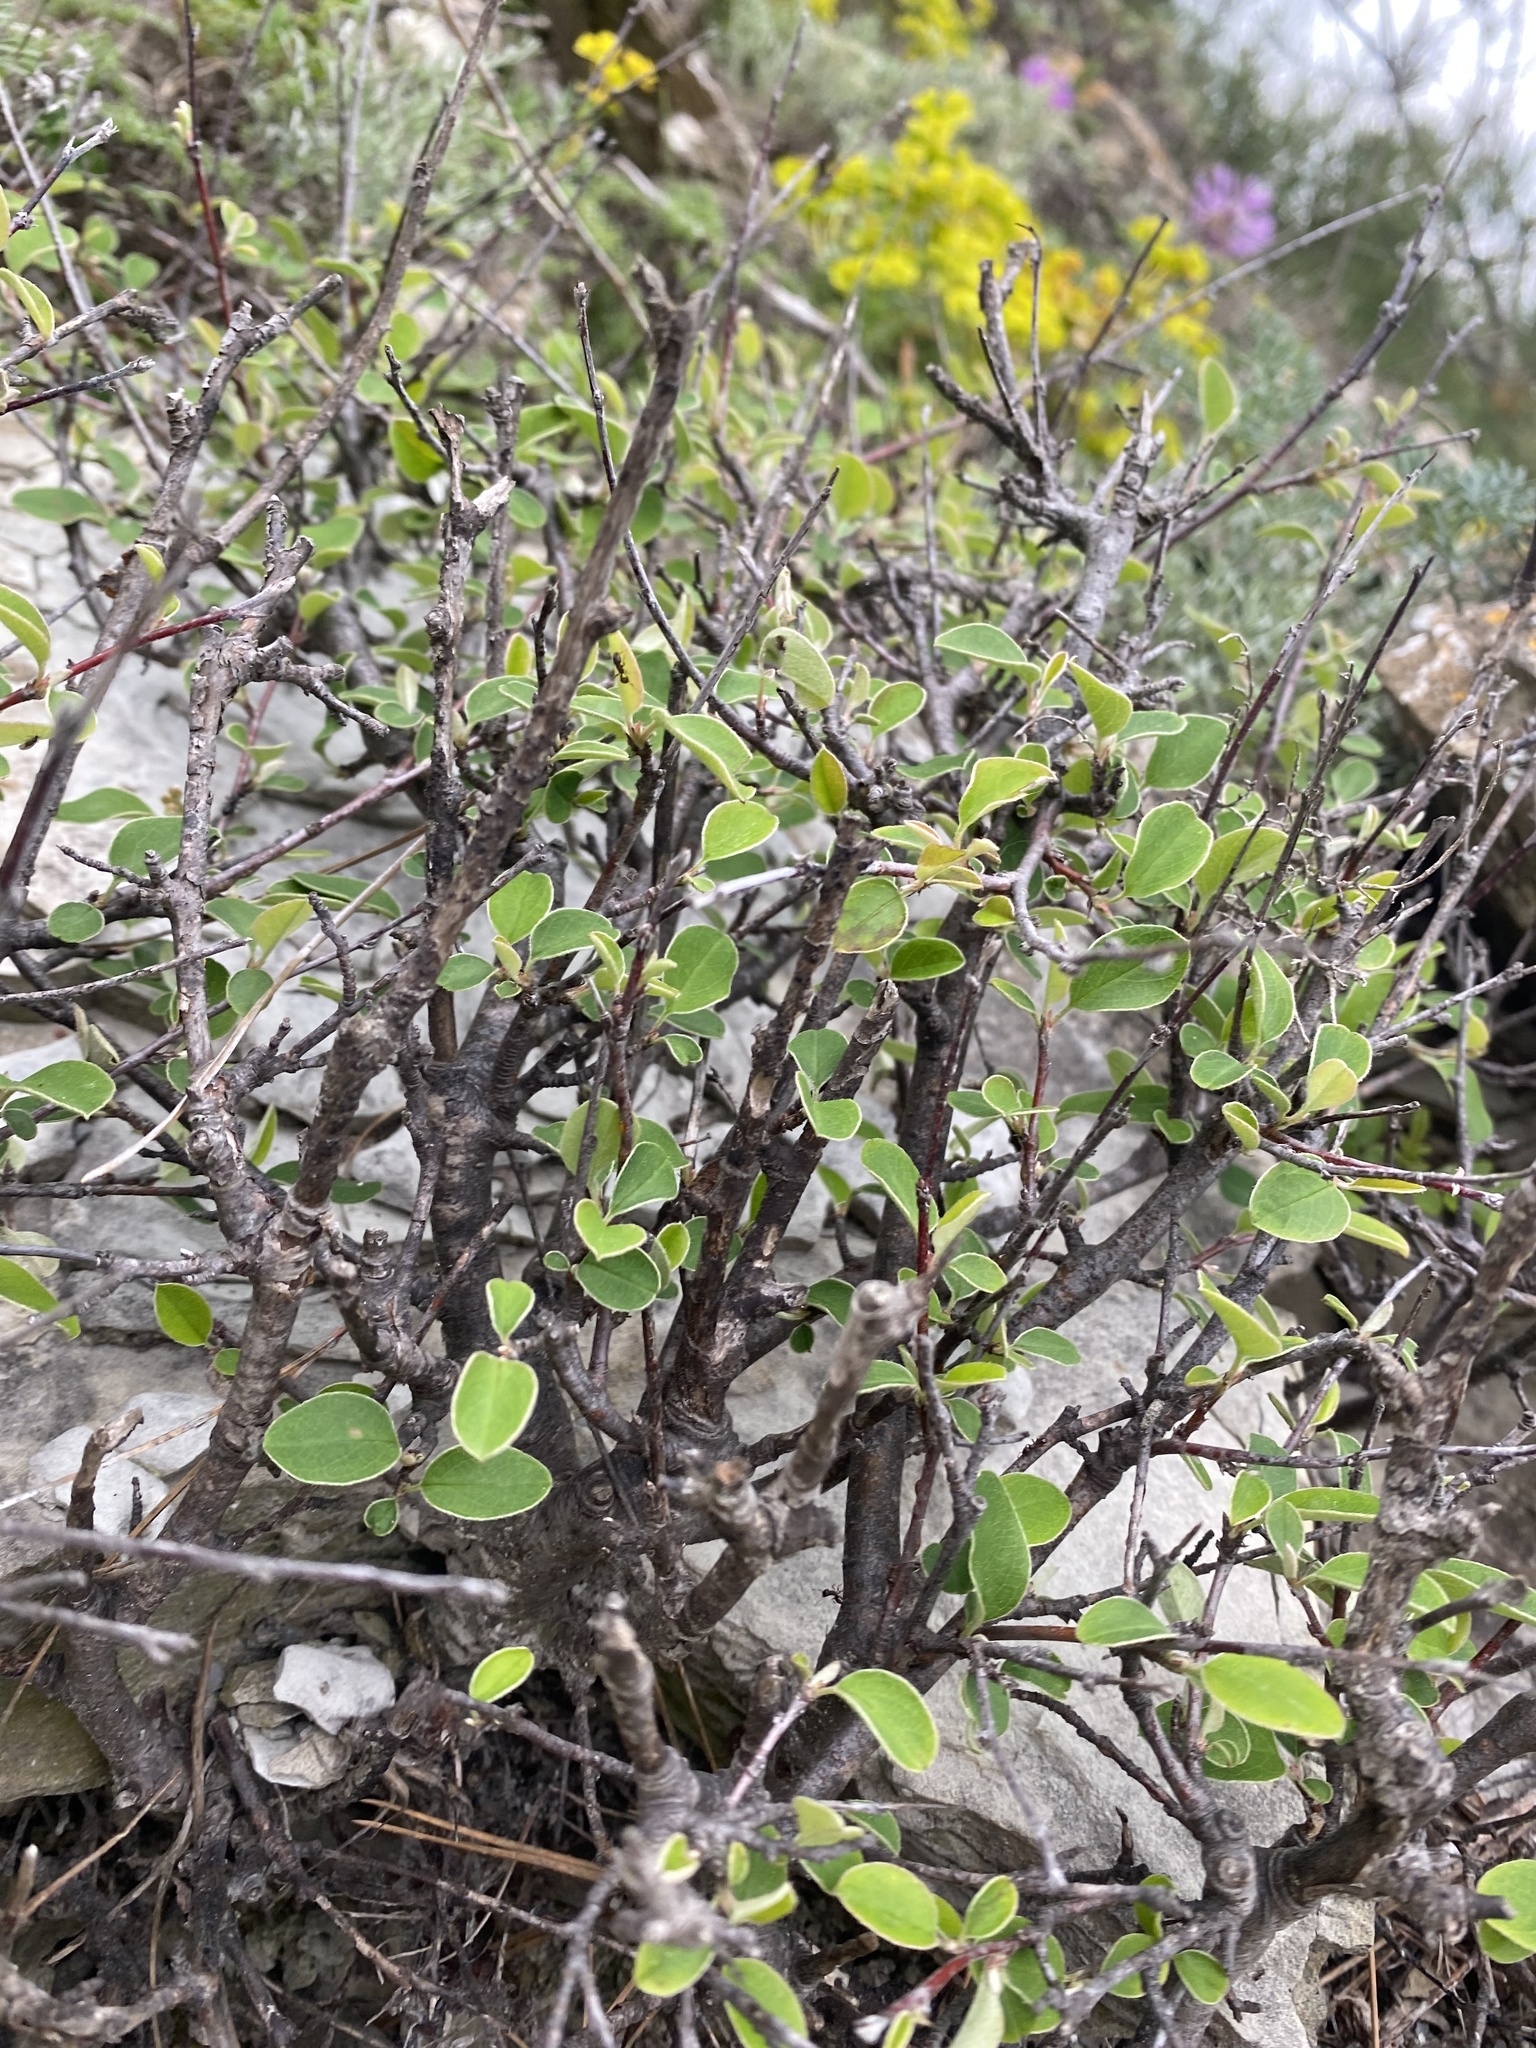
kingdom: Plantae
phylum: Tracheophyta
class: Magnoliopsida
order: Rosales
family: Rosaceae
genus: Cotoneaster
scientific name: Cotoneaster tauricus
